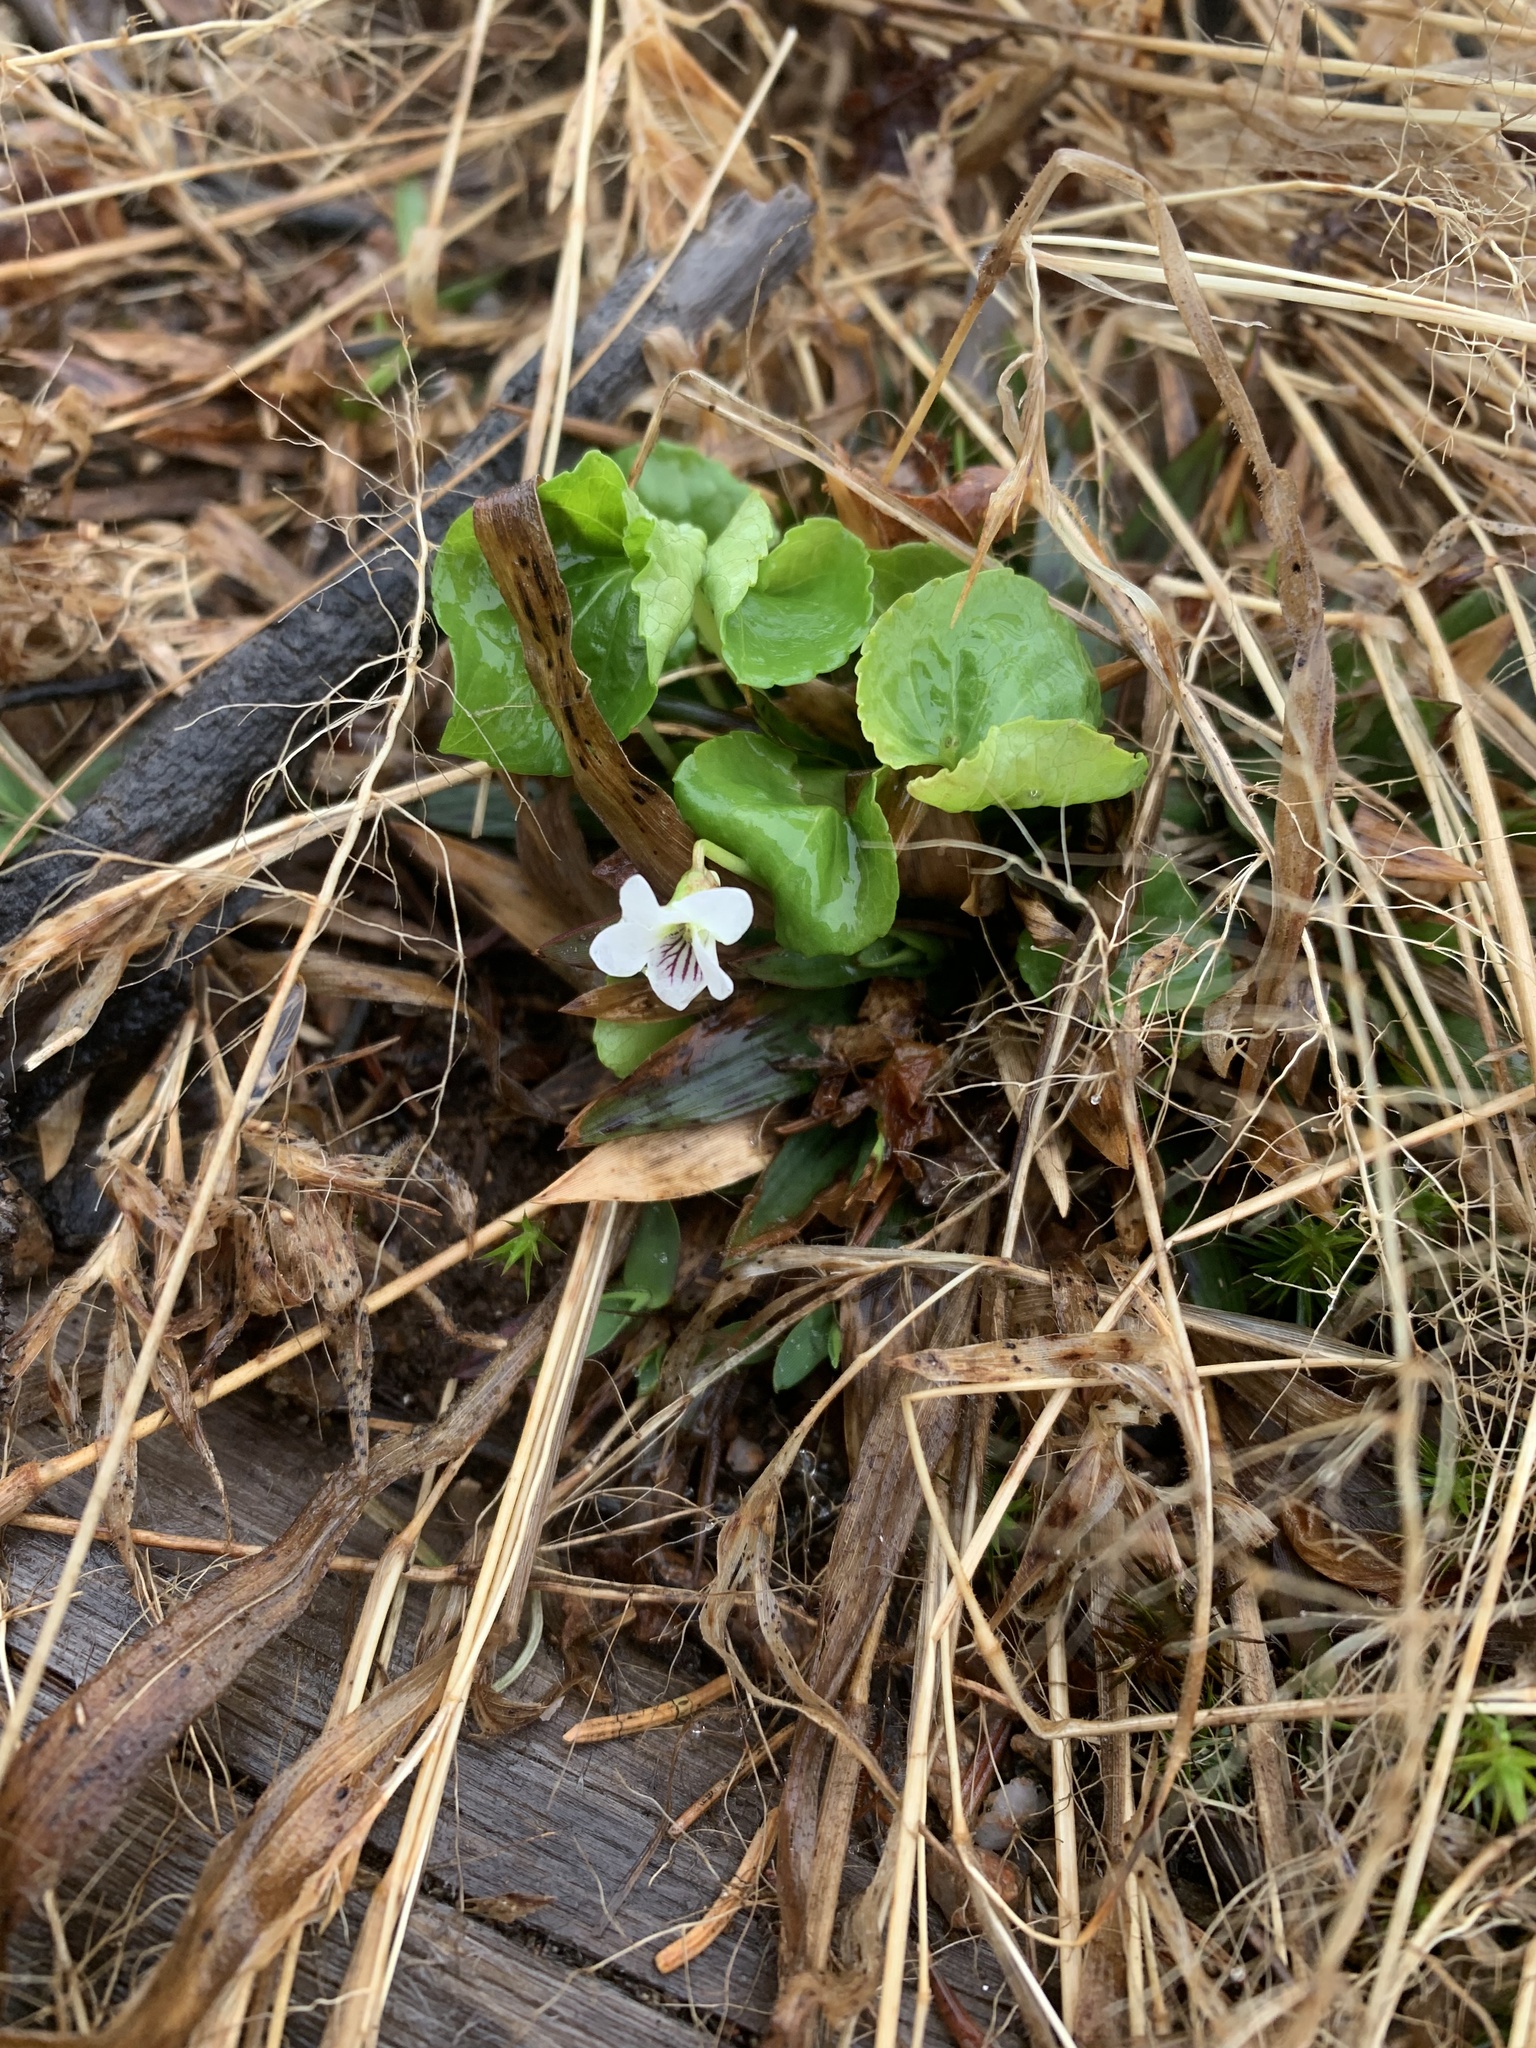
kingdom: Plantae
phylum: Tracheophyta
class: Magnoliopsida
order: Malpighiales
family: Violaceae
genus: Viola
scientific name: Viola minuscula
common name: Northern white violet
